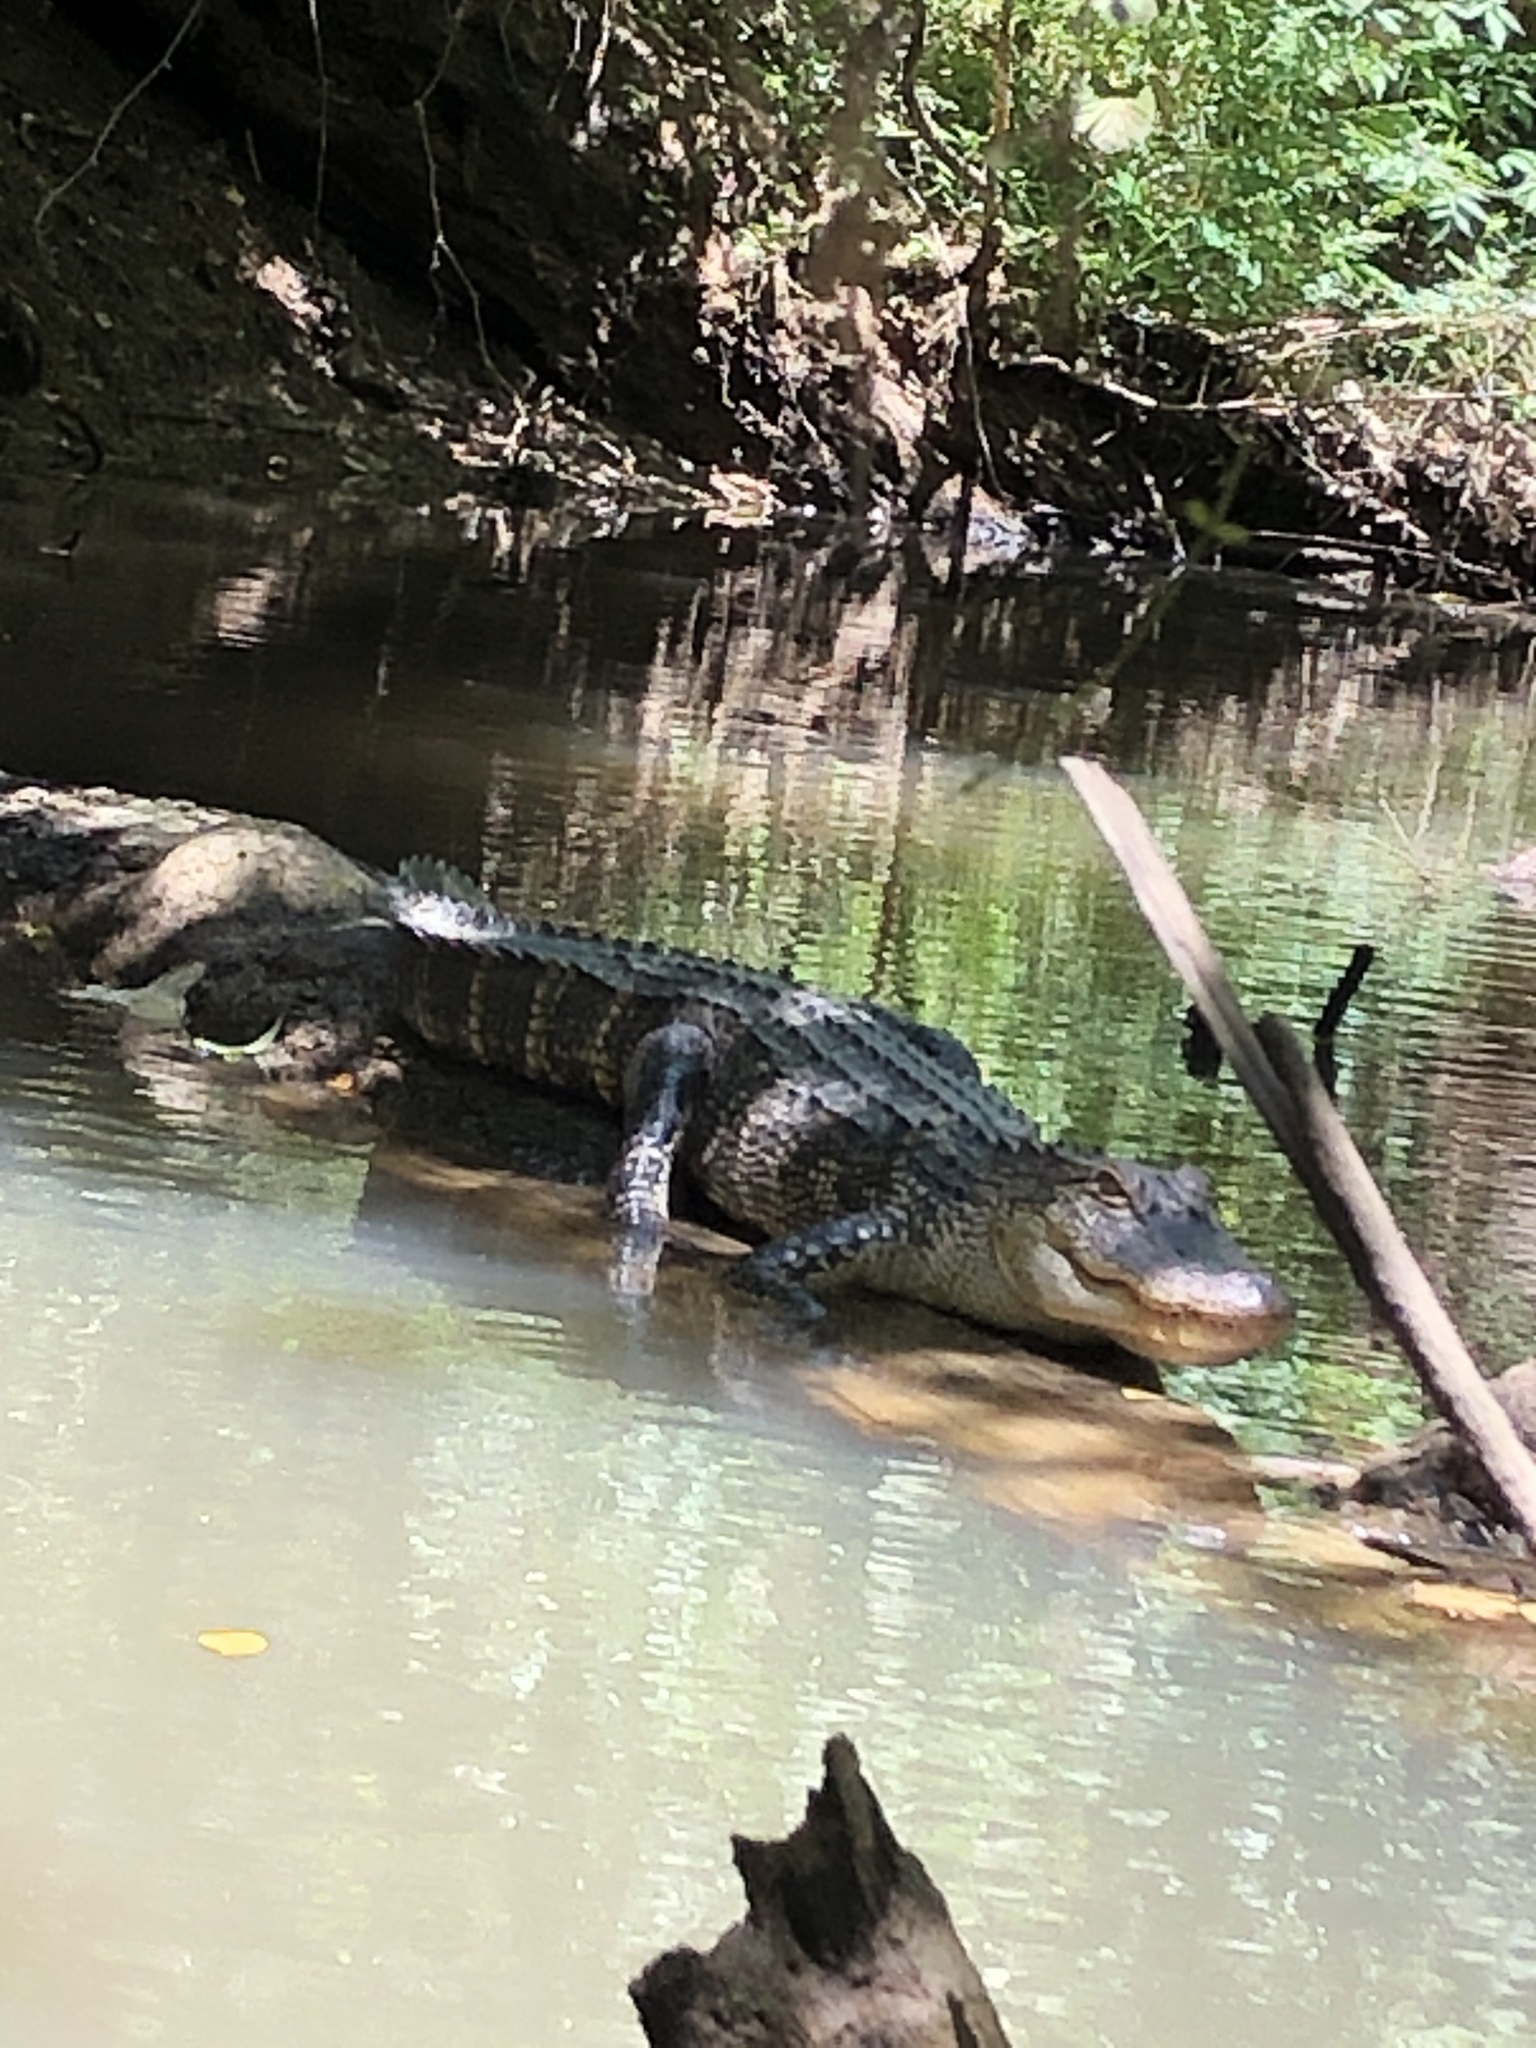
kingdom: Animalia
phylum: Chordata
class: Crocodylia
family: Alligatoridae
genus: Alligator
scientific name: Alligator mississippiensis
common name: American alligator
